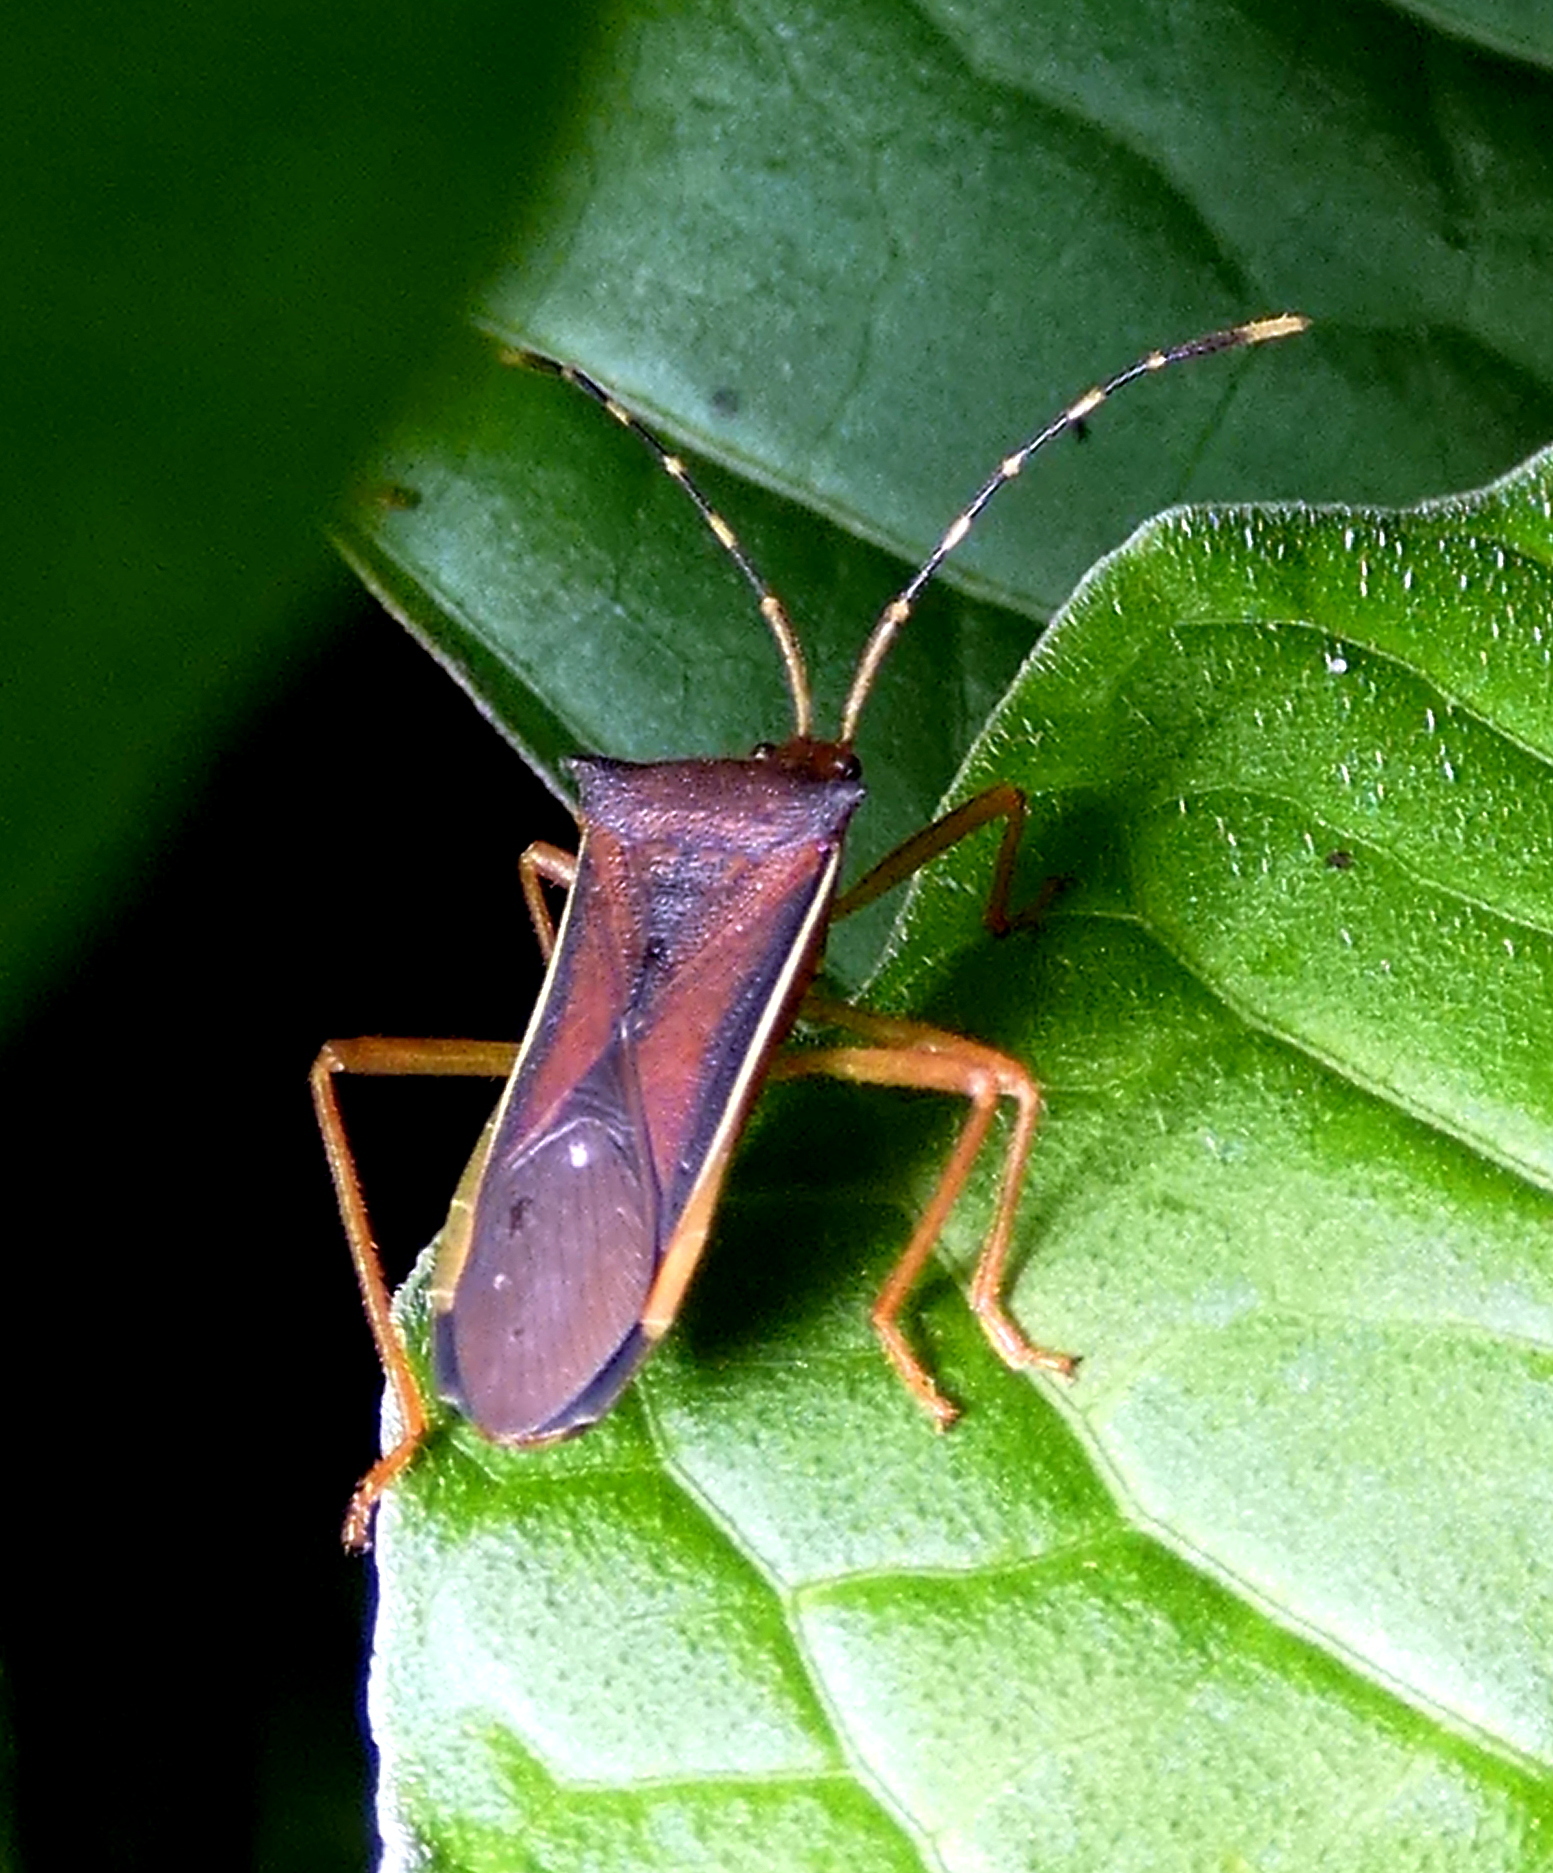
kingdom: Animalia
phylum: Arthropoda
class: Insecta
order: Hemiptera
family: Coreidae
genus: Anasa
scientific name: Anasa varicornis
